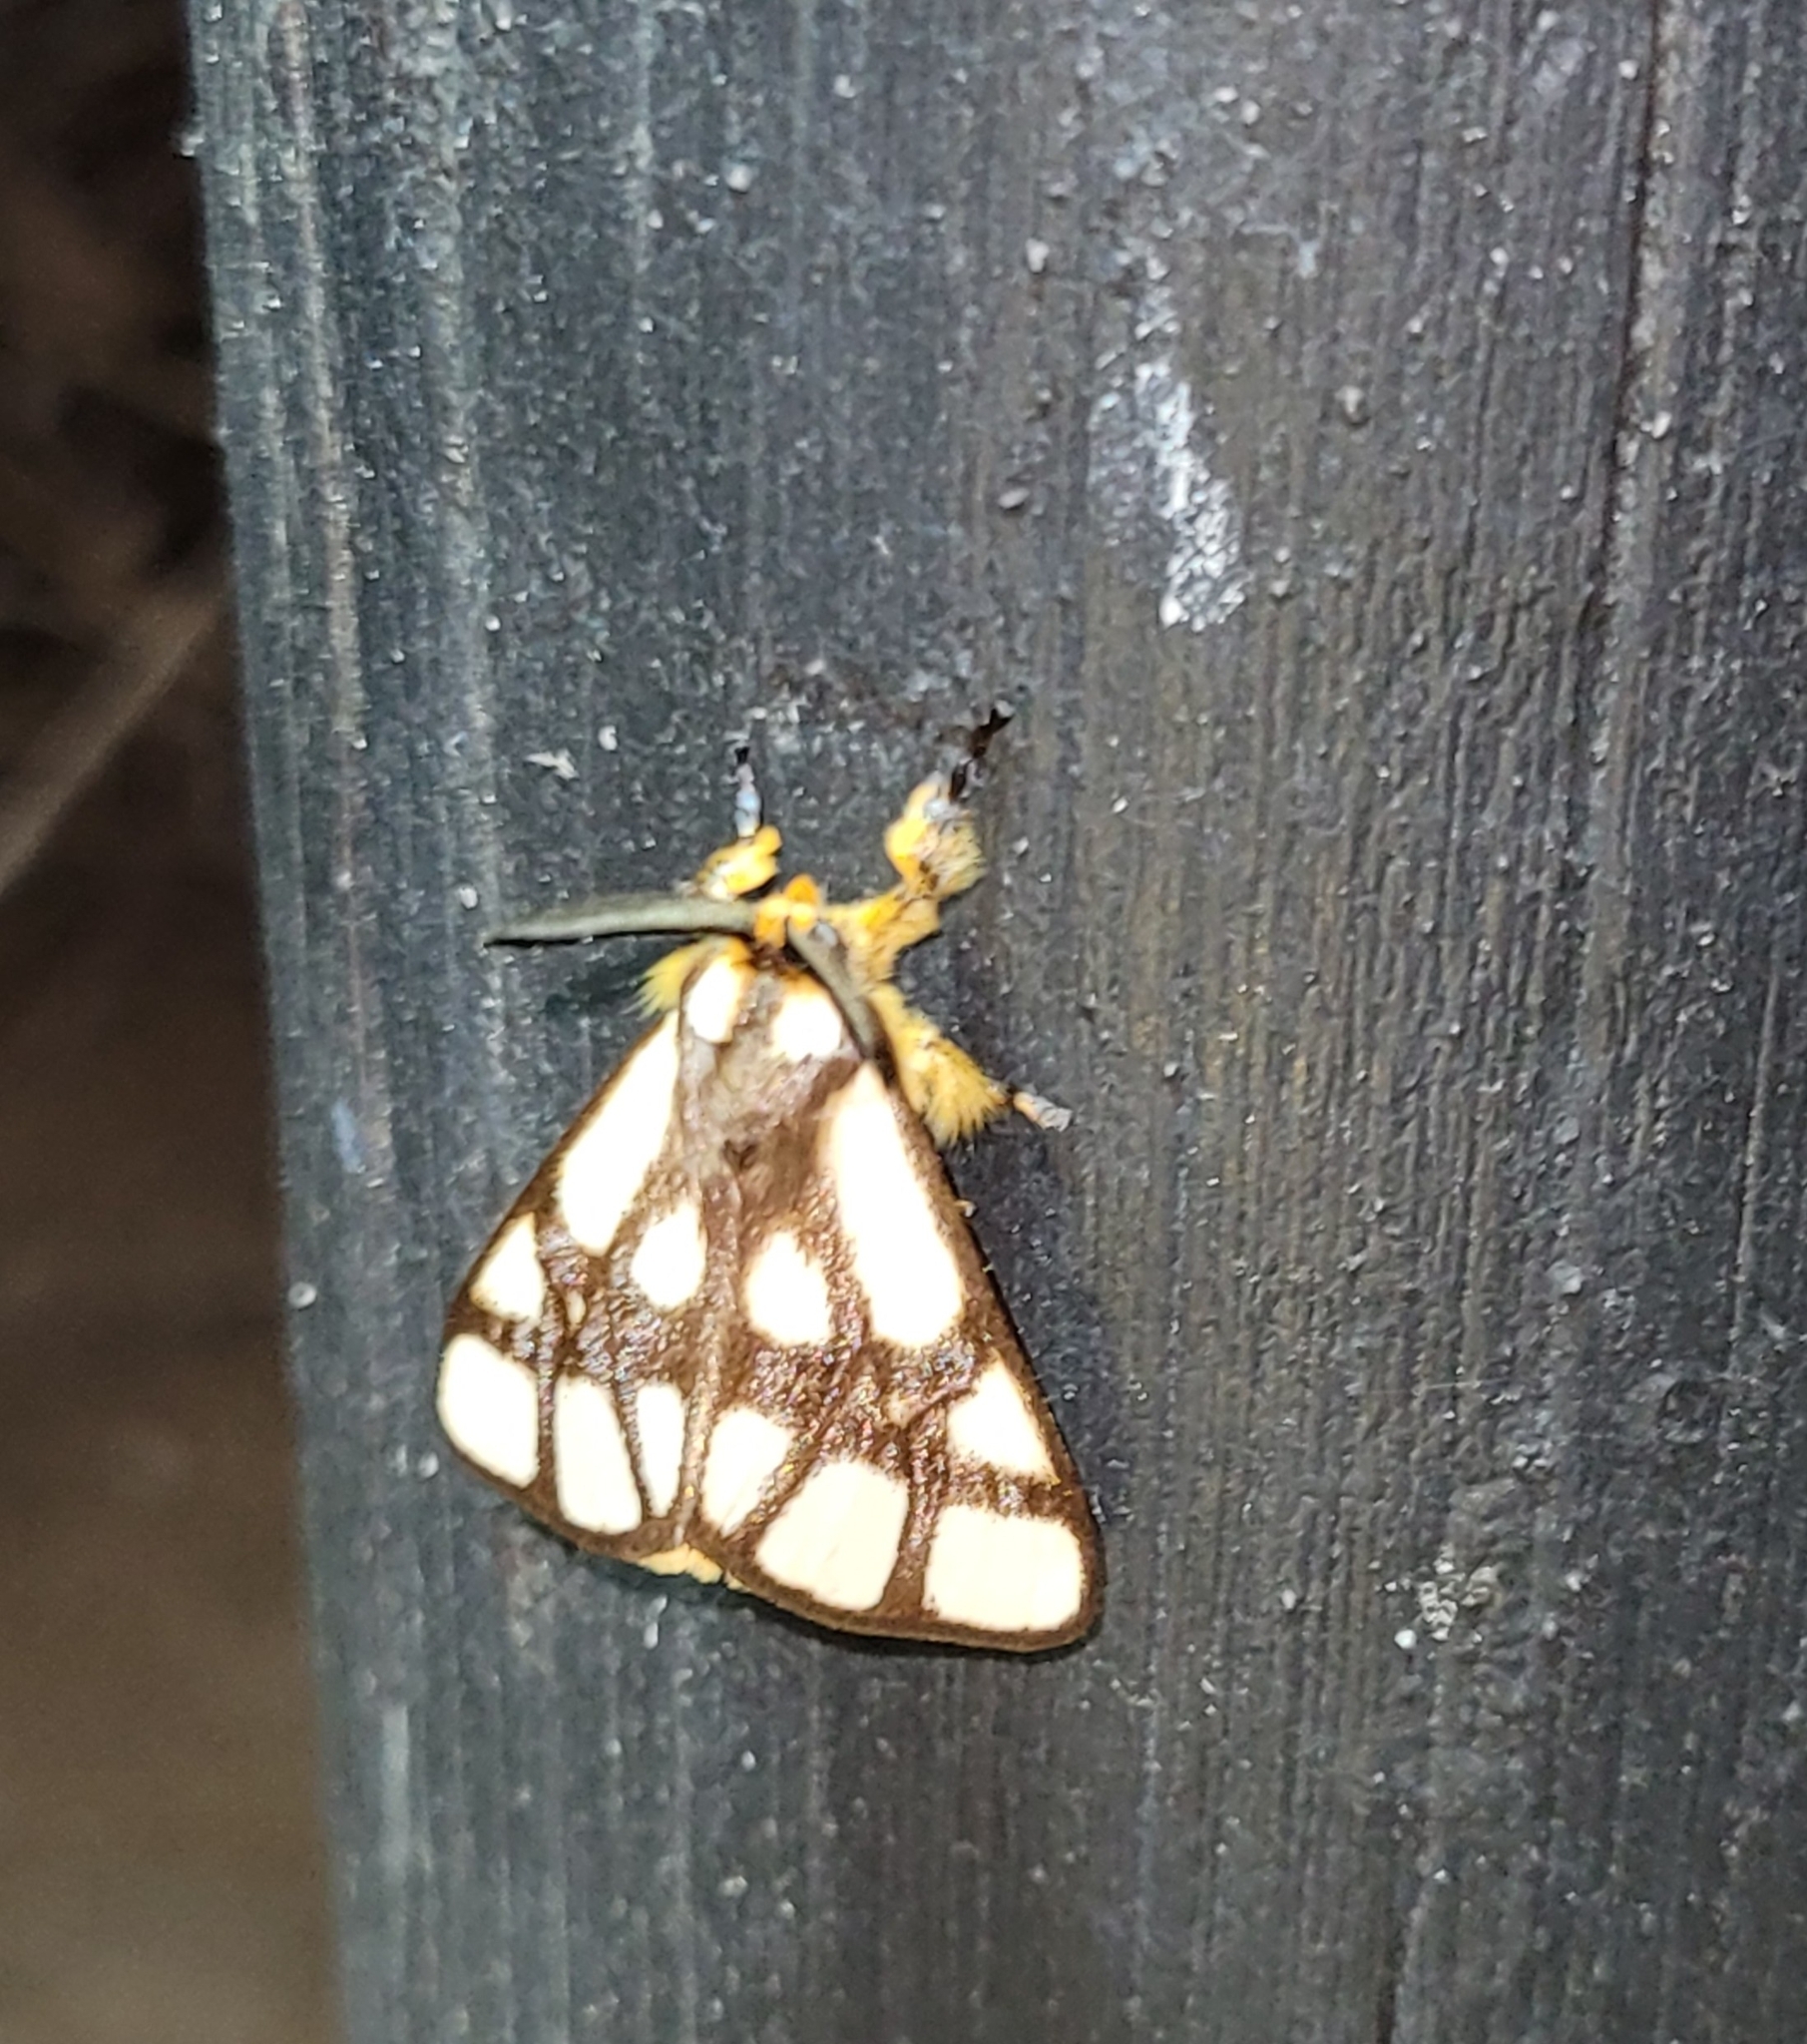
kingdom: Animalia
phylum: Arthropoda
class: Insecta
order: Lepidoptera
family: Notodontidae
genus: Anaphe
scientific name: Anaphe reticulata
